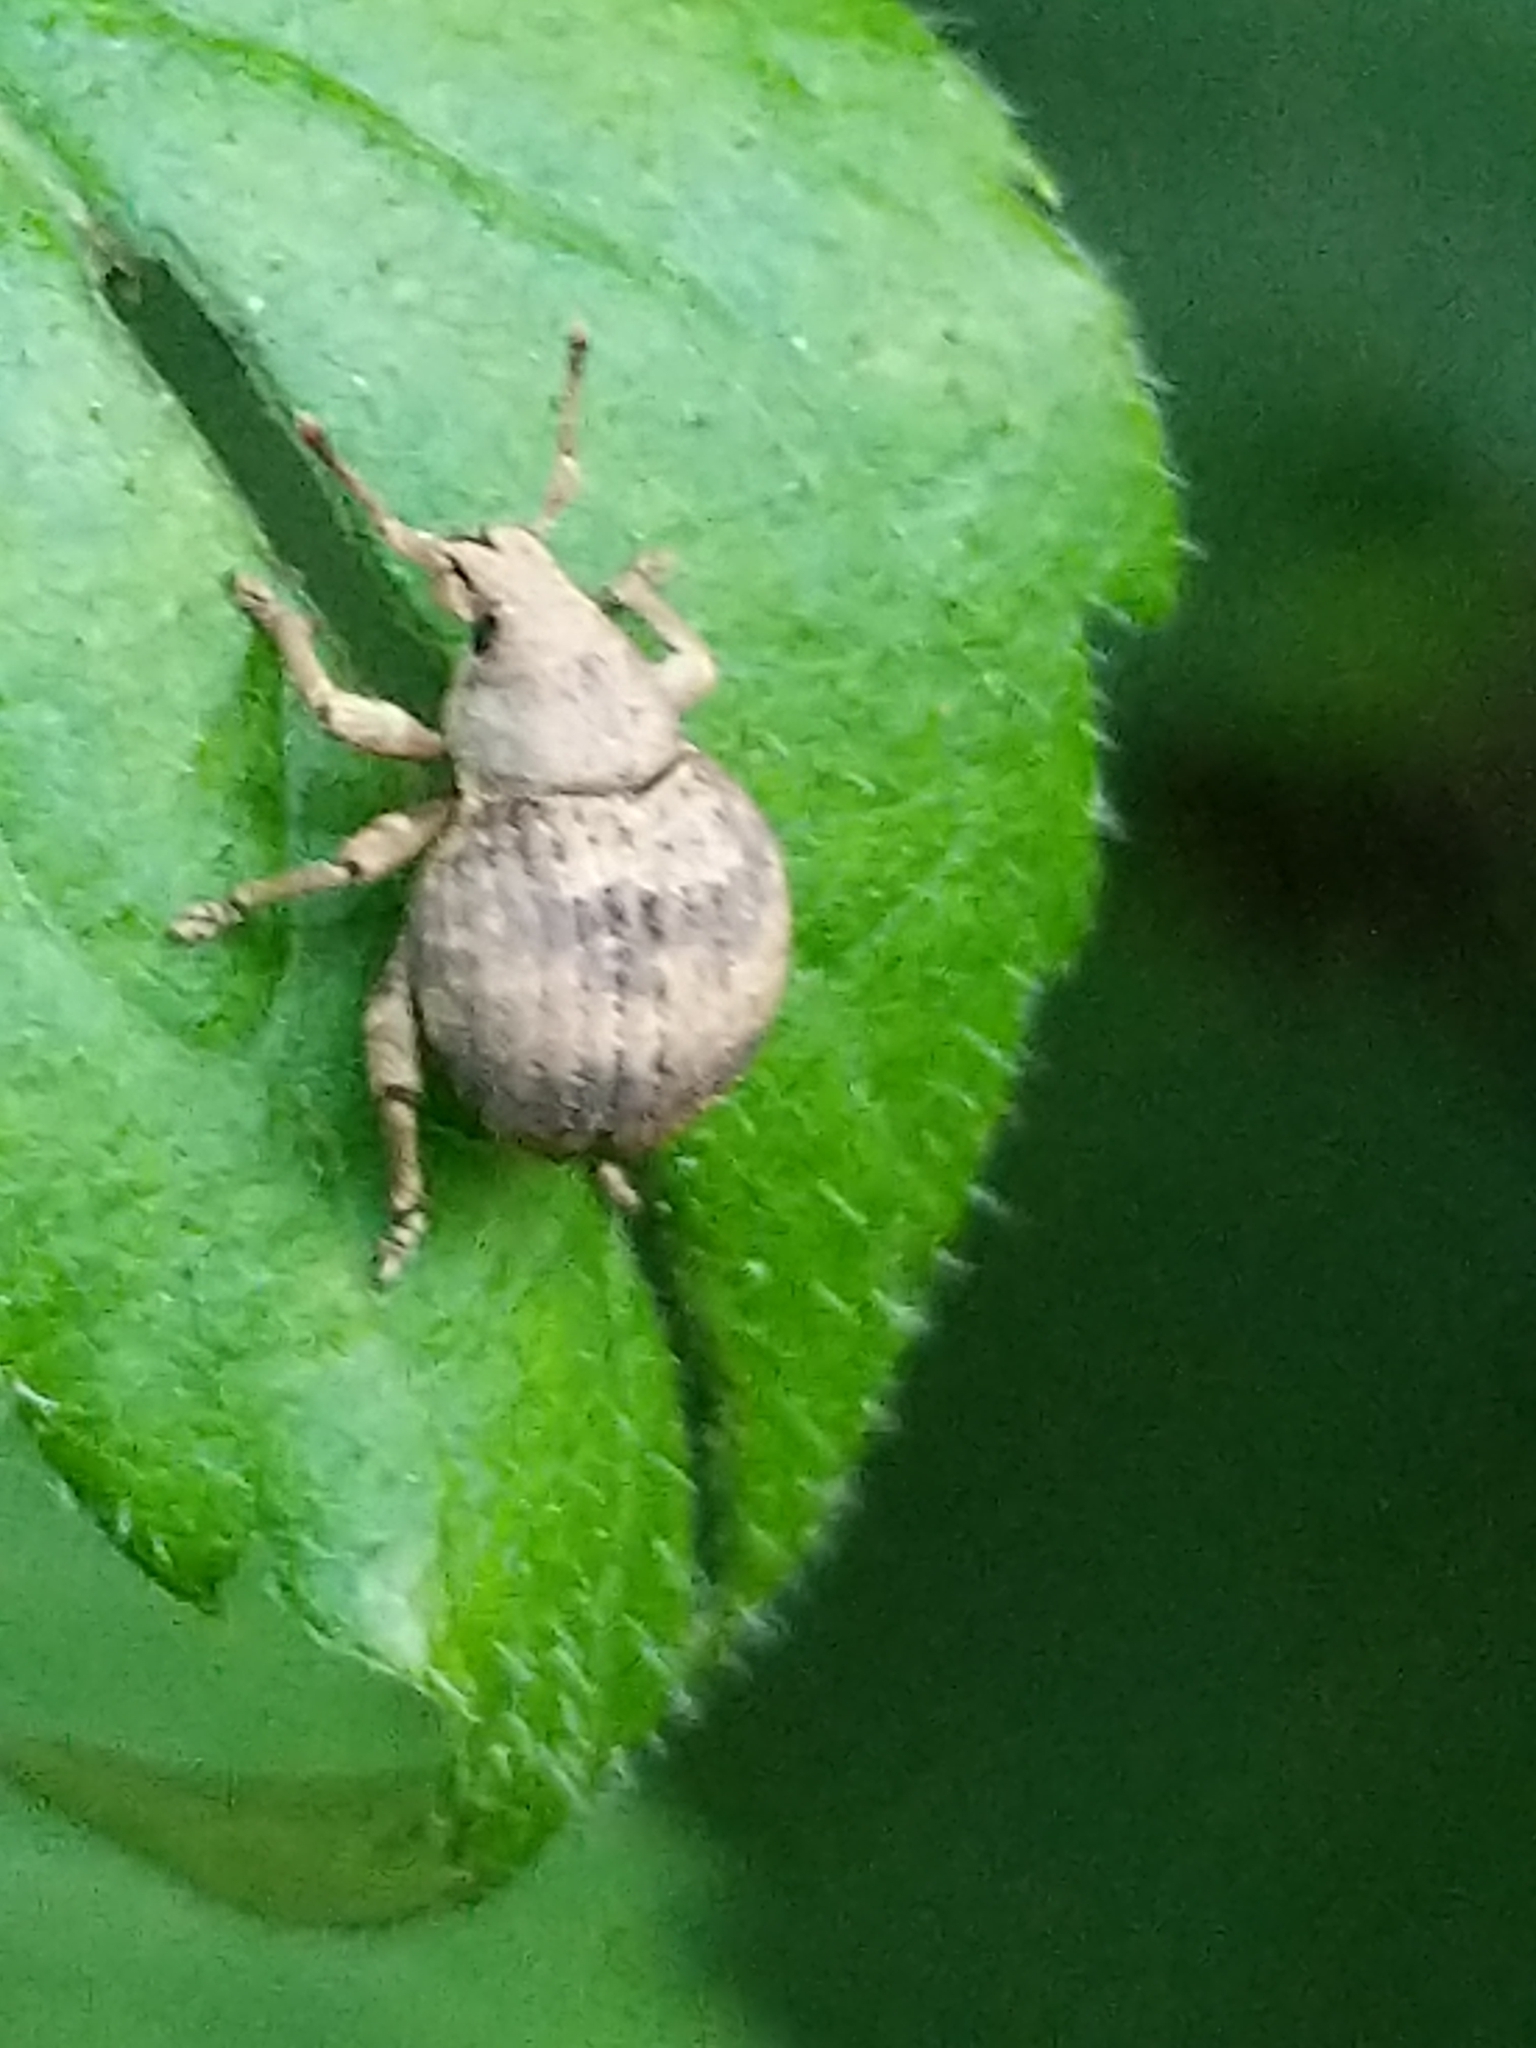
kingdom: Animalia
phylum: Arthropoda
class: Insecta
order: Coleoptera
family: Curculionidae
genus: Pseudocneorhinus
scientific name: Pseudocneorhinus bifasciatus
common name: Two-banded japanese weevil
